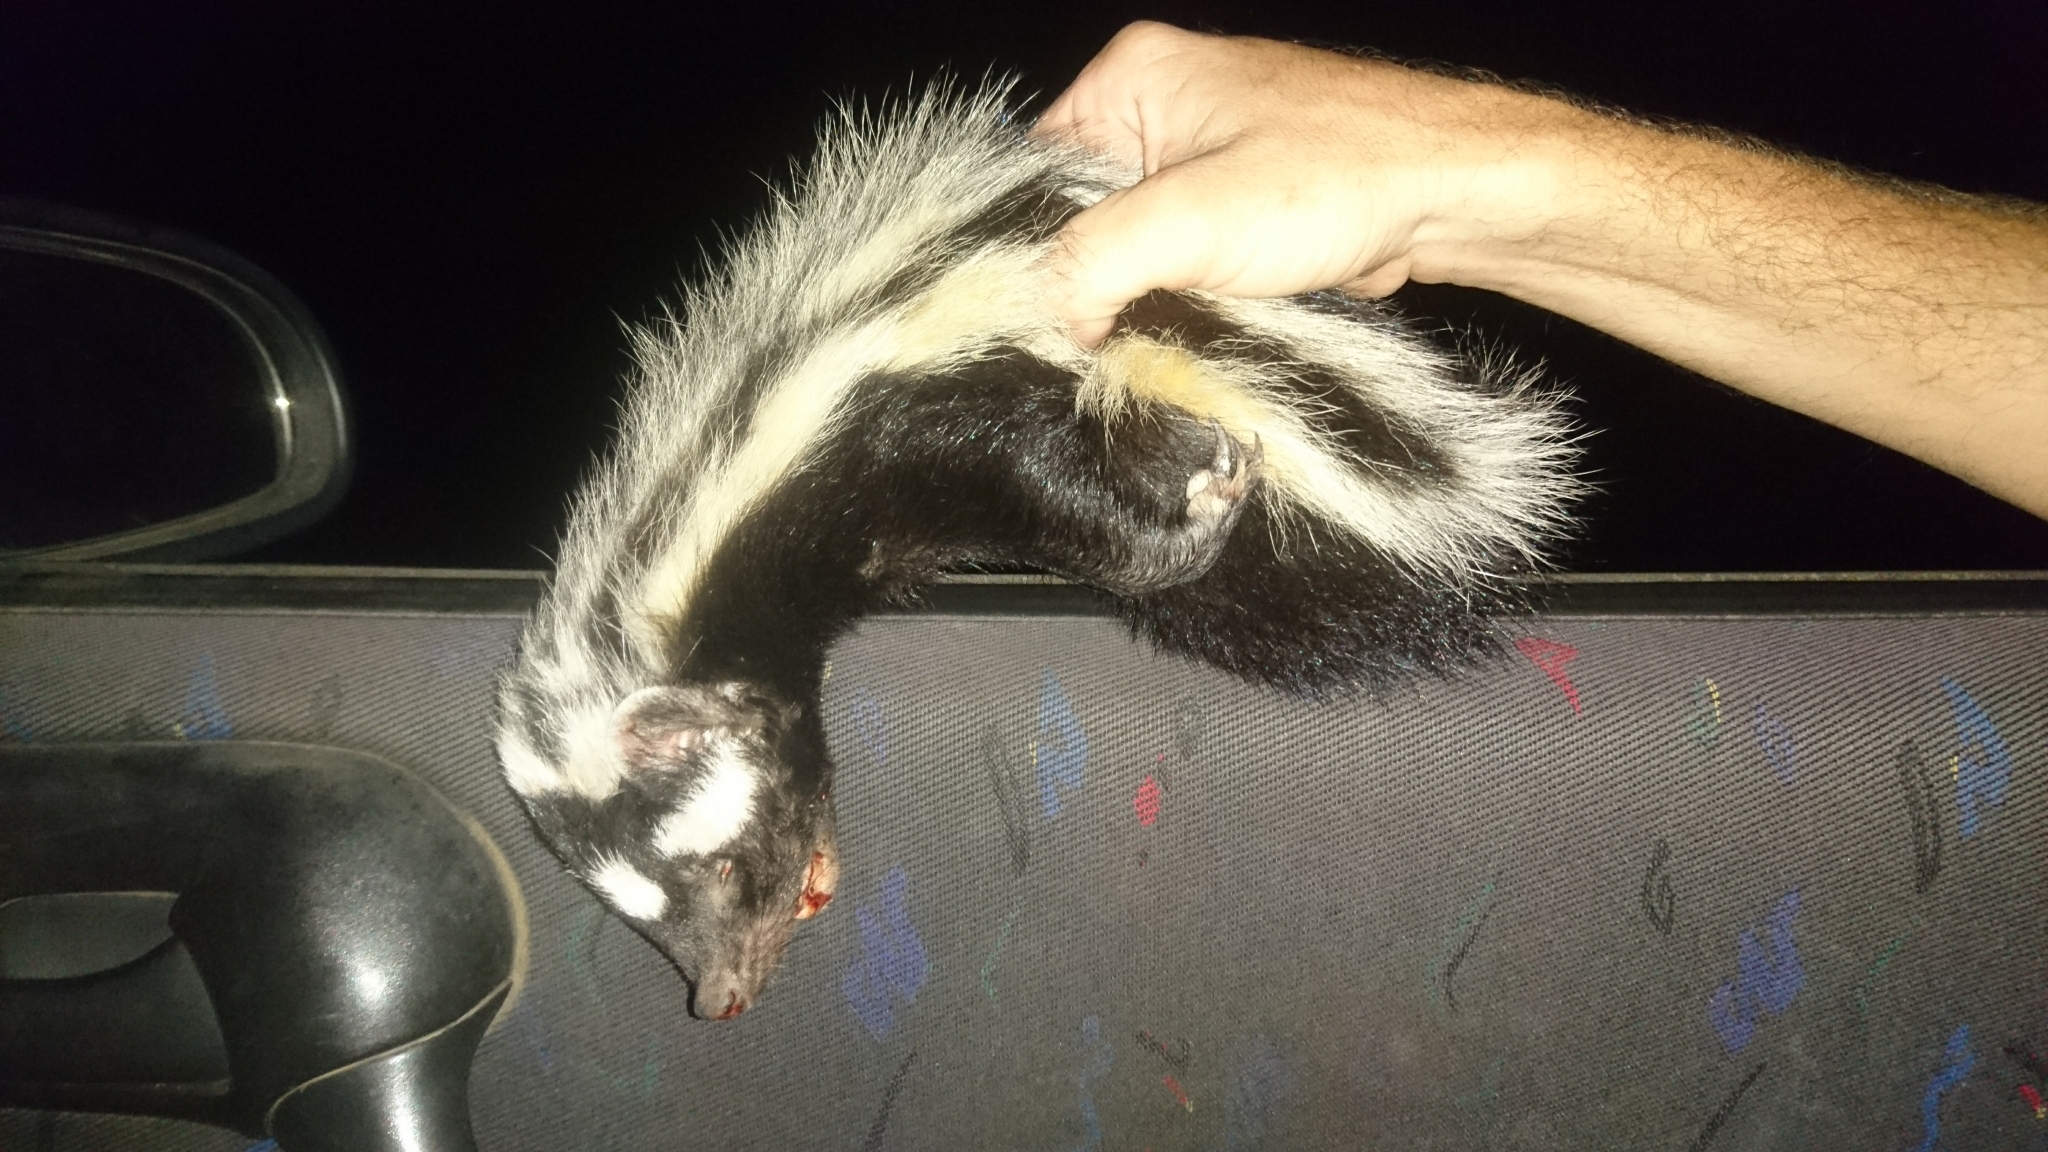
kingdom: Animalia
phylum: Chordata
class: Mammalia
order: Carnivora
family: Mustelidae
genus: Ictonyx
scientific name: Ictonyx striatus
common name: Striped polecat
